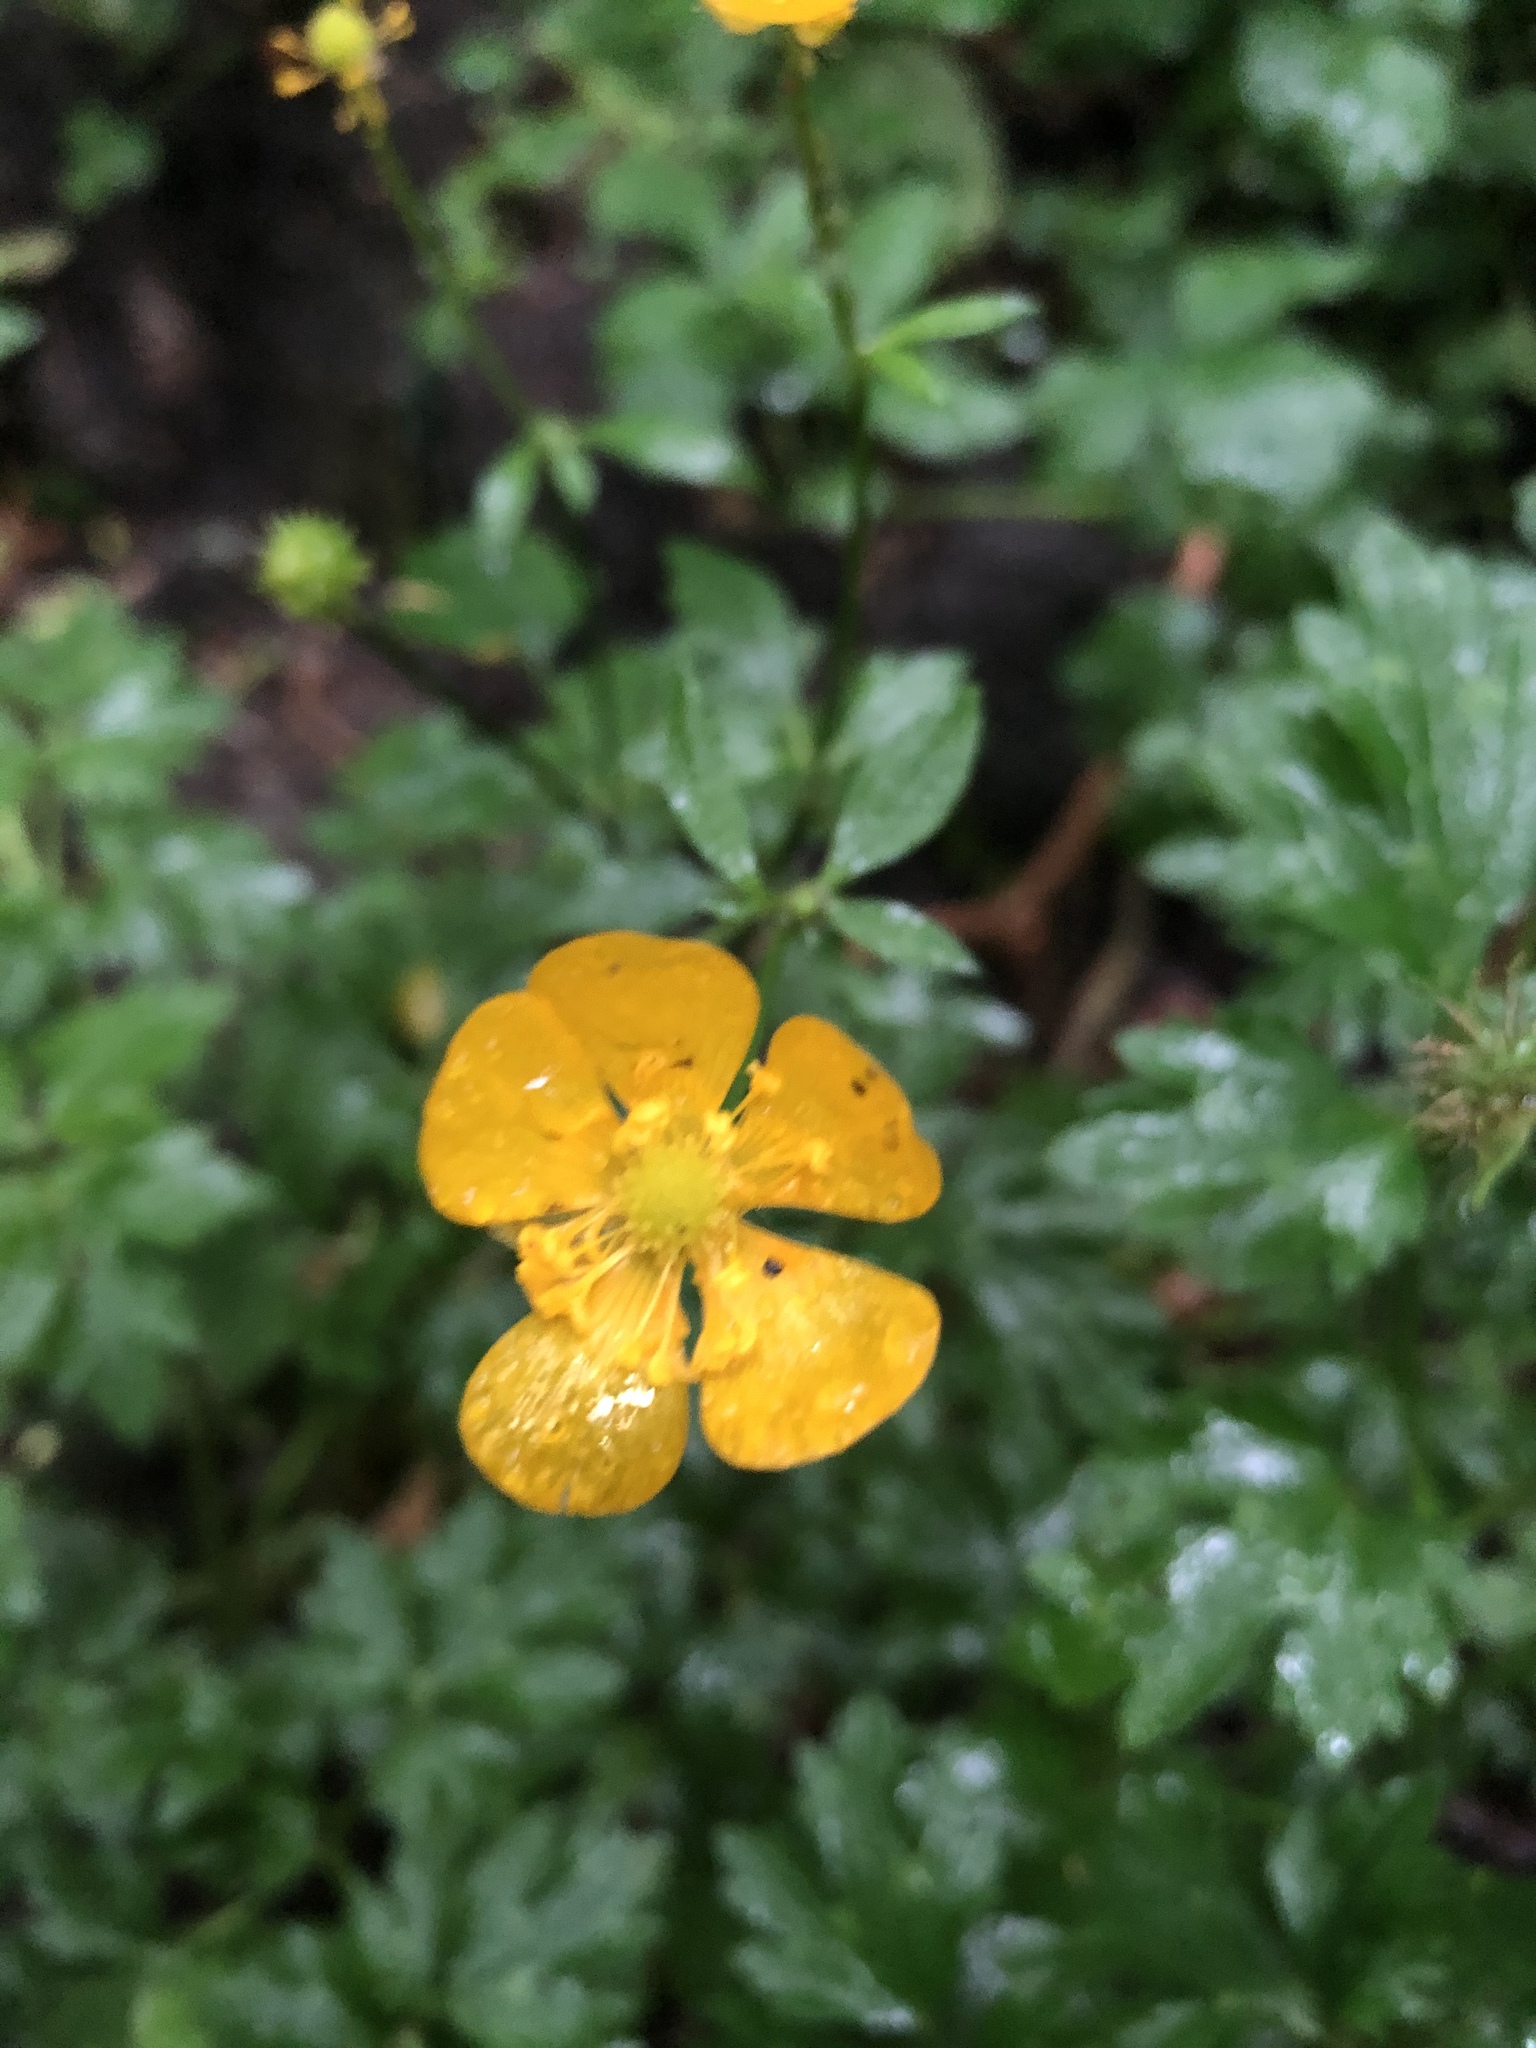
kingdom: Plantae
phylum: Tracheophyta
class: Magnoliopsida
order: Ranunculales
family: Ranunculaceae
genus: Ranunculus
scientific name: Ranunculus repens
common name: Creeping buttercup
